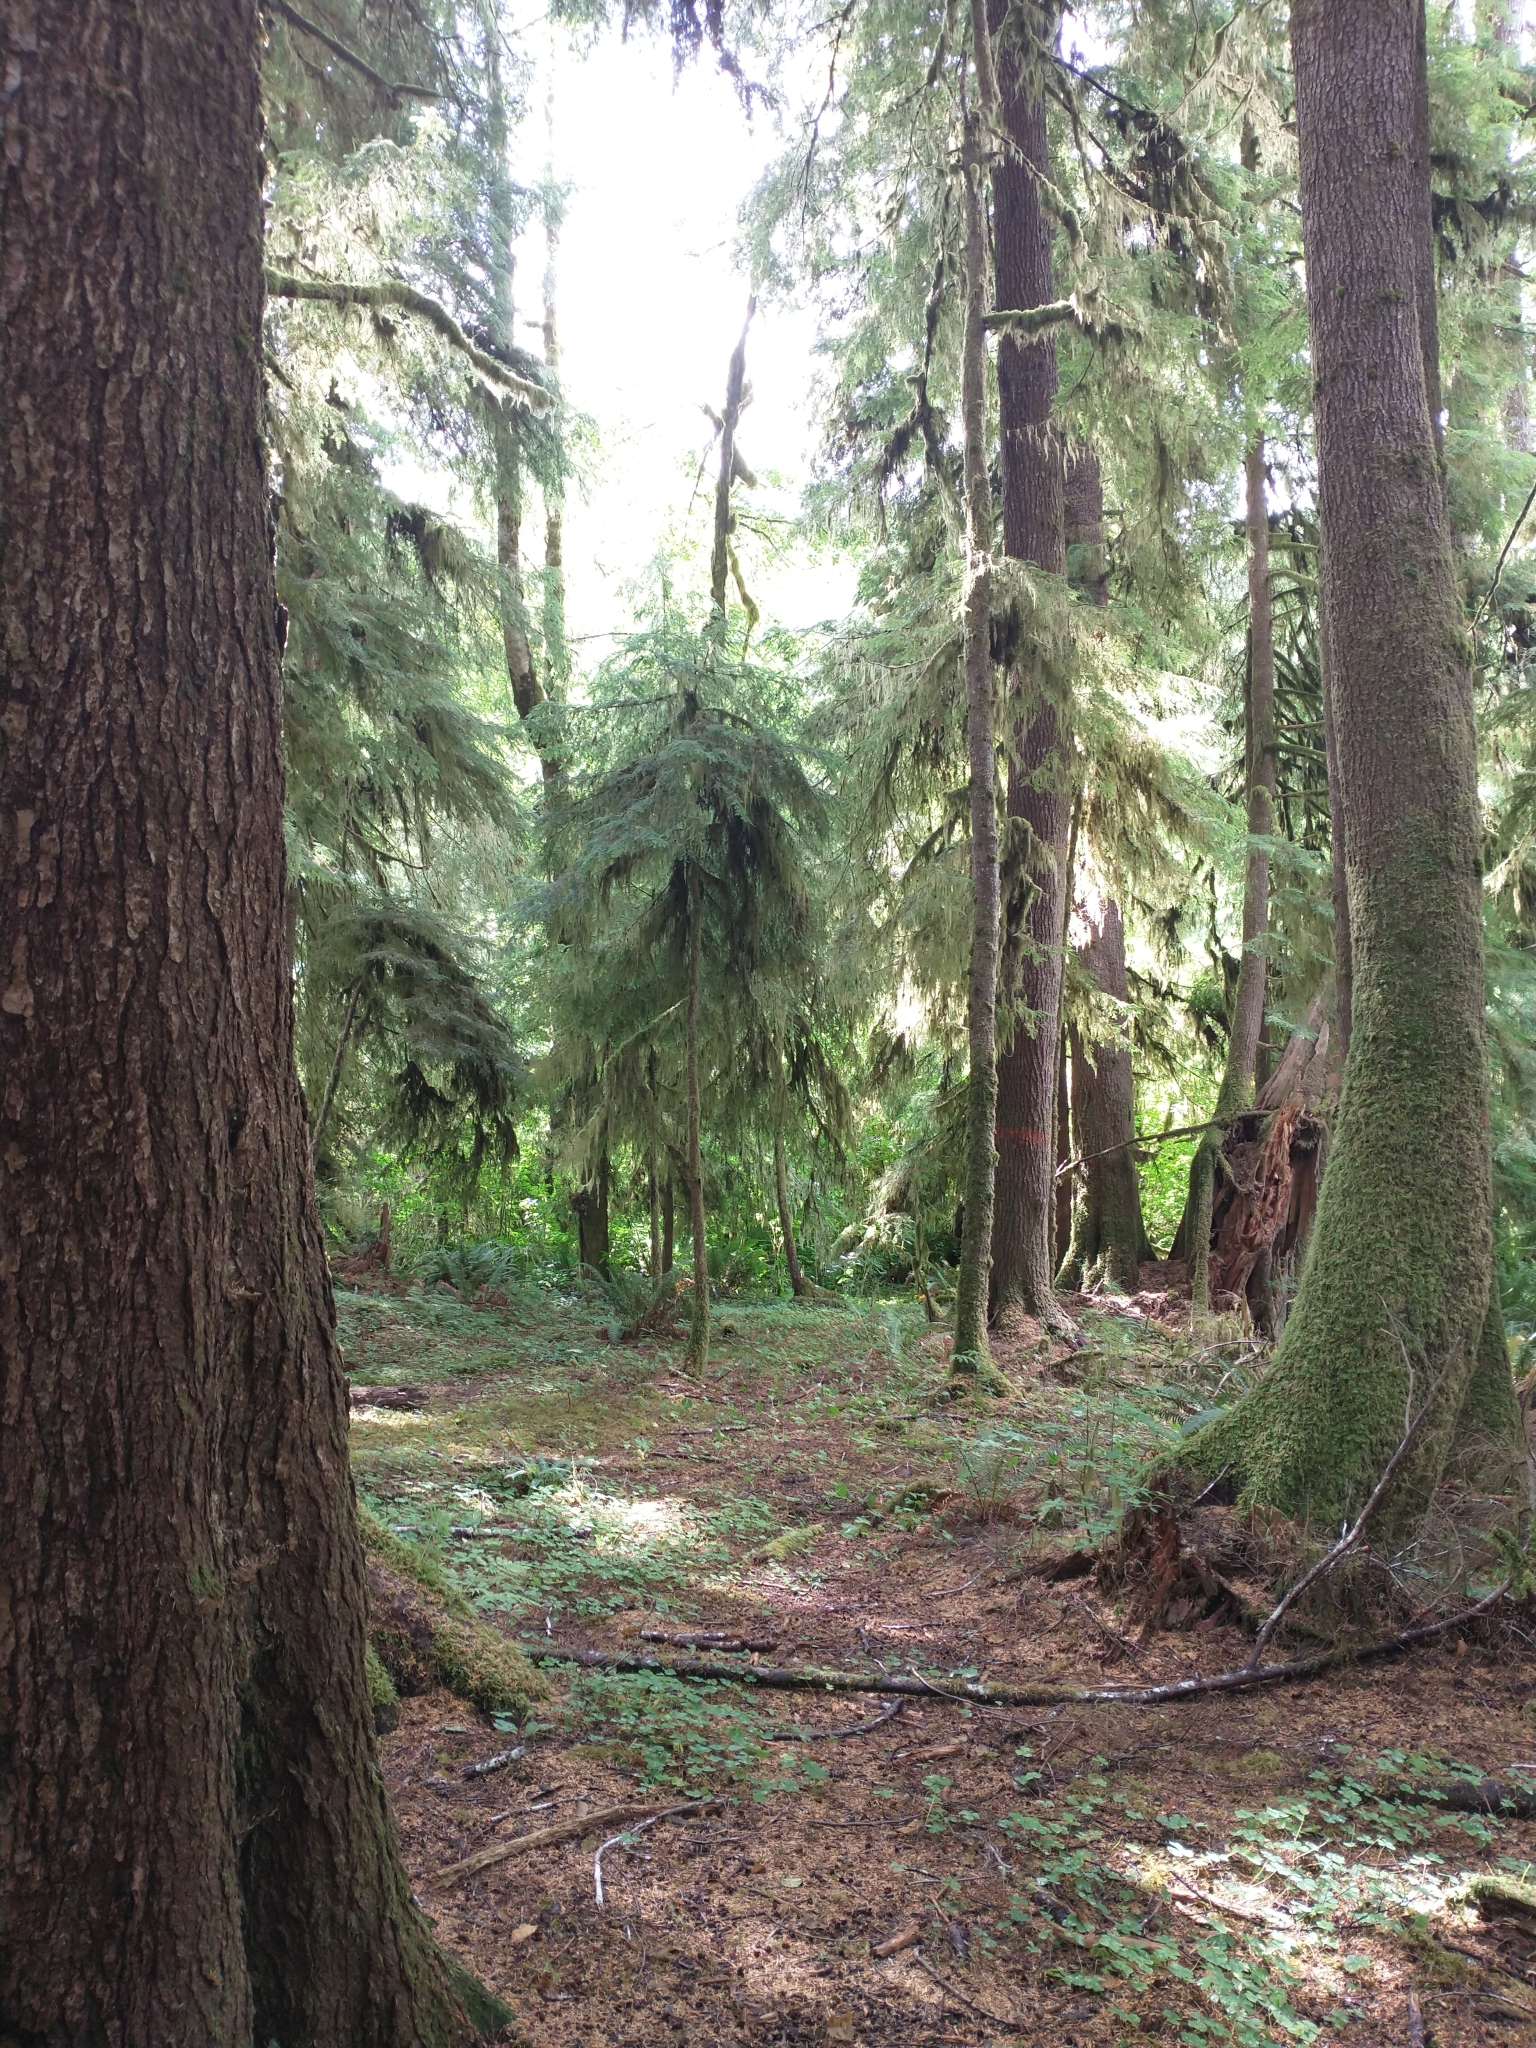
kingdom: Plantae
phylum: Tracheophyta
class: Pinopsida
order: Pinales
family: Pinaceae
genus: Tsuga
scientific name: Tsuga heterophylla
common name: Western hemlock
